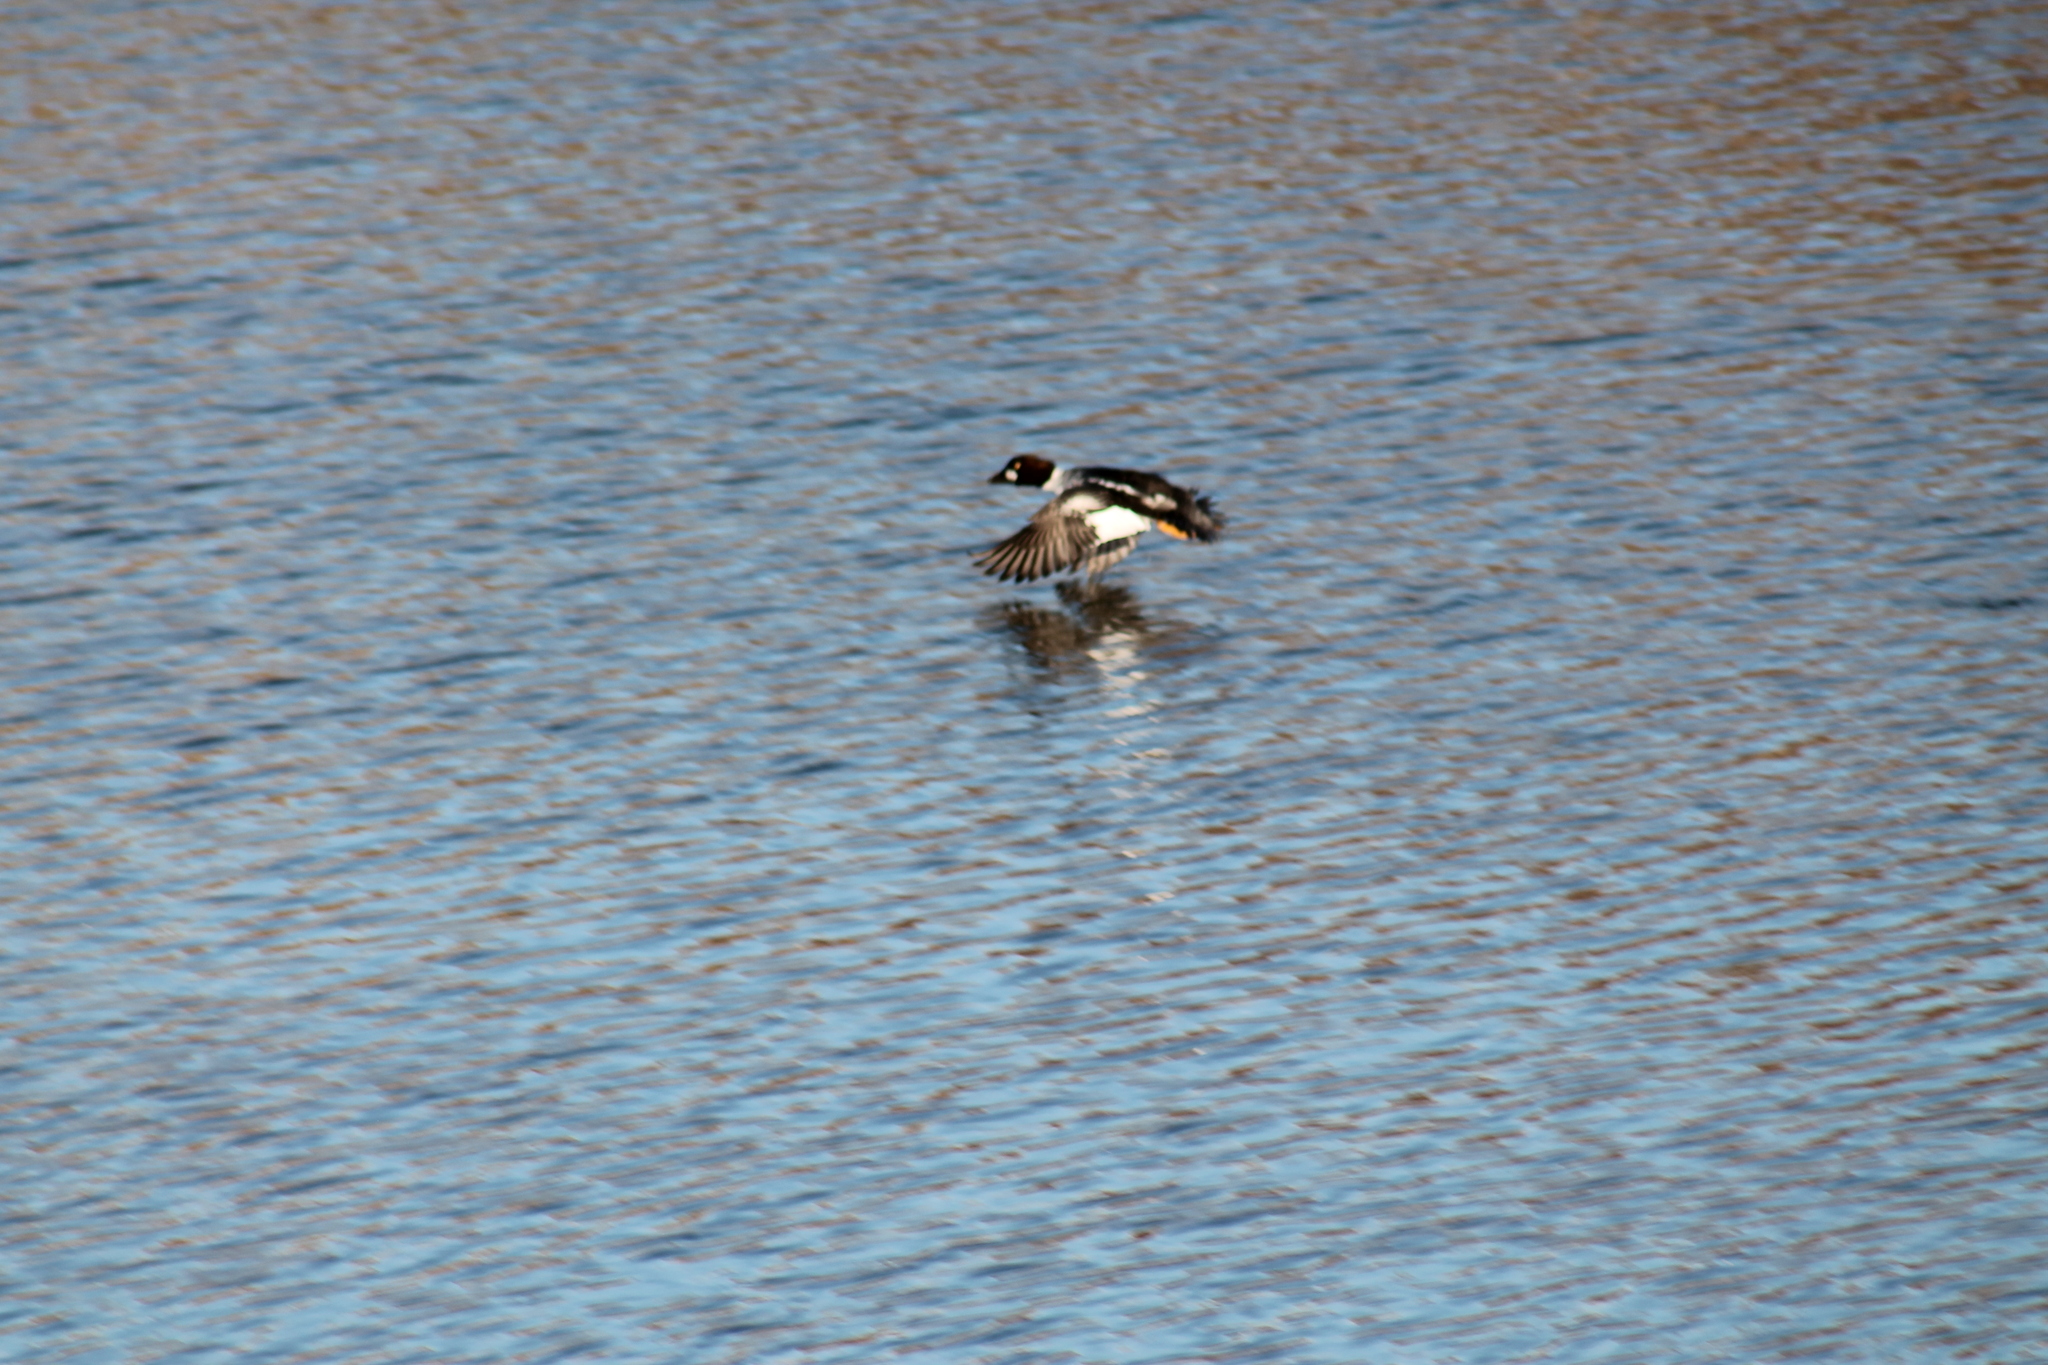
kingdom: Animalia
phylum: Chordata
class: Aves
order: Anseriformes
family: Anatidae
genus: Bucephala
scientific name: Bucephala clangula
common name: Common goldeneye
